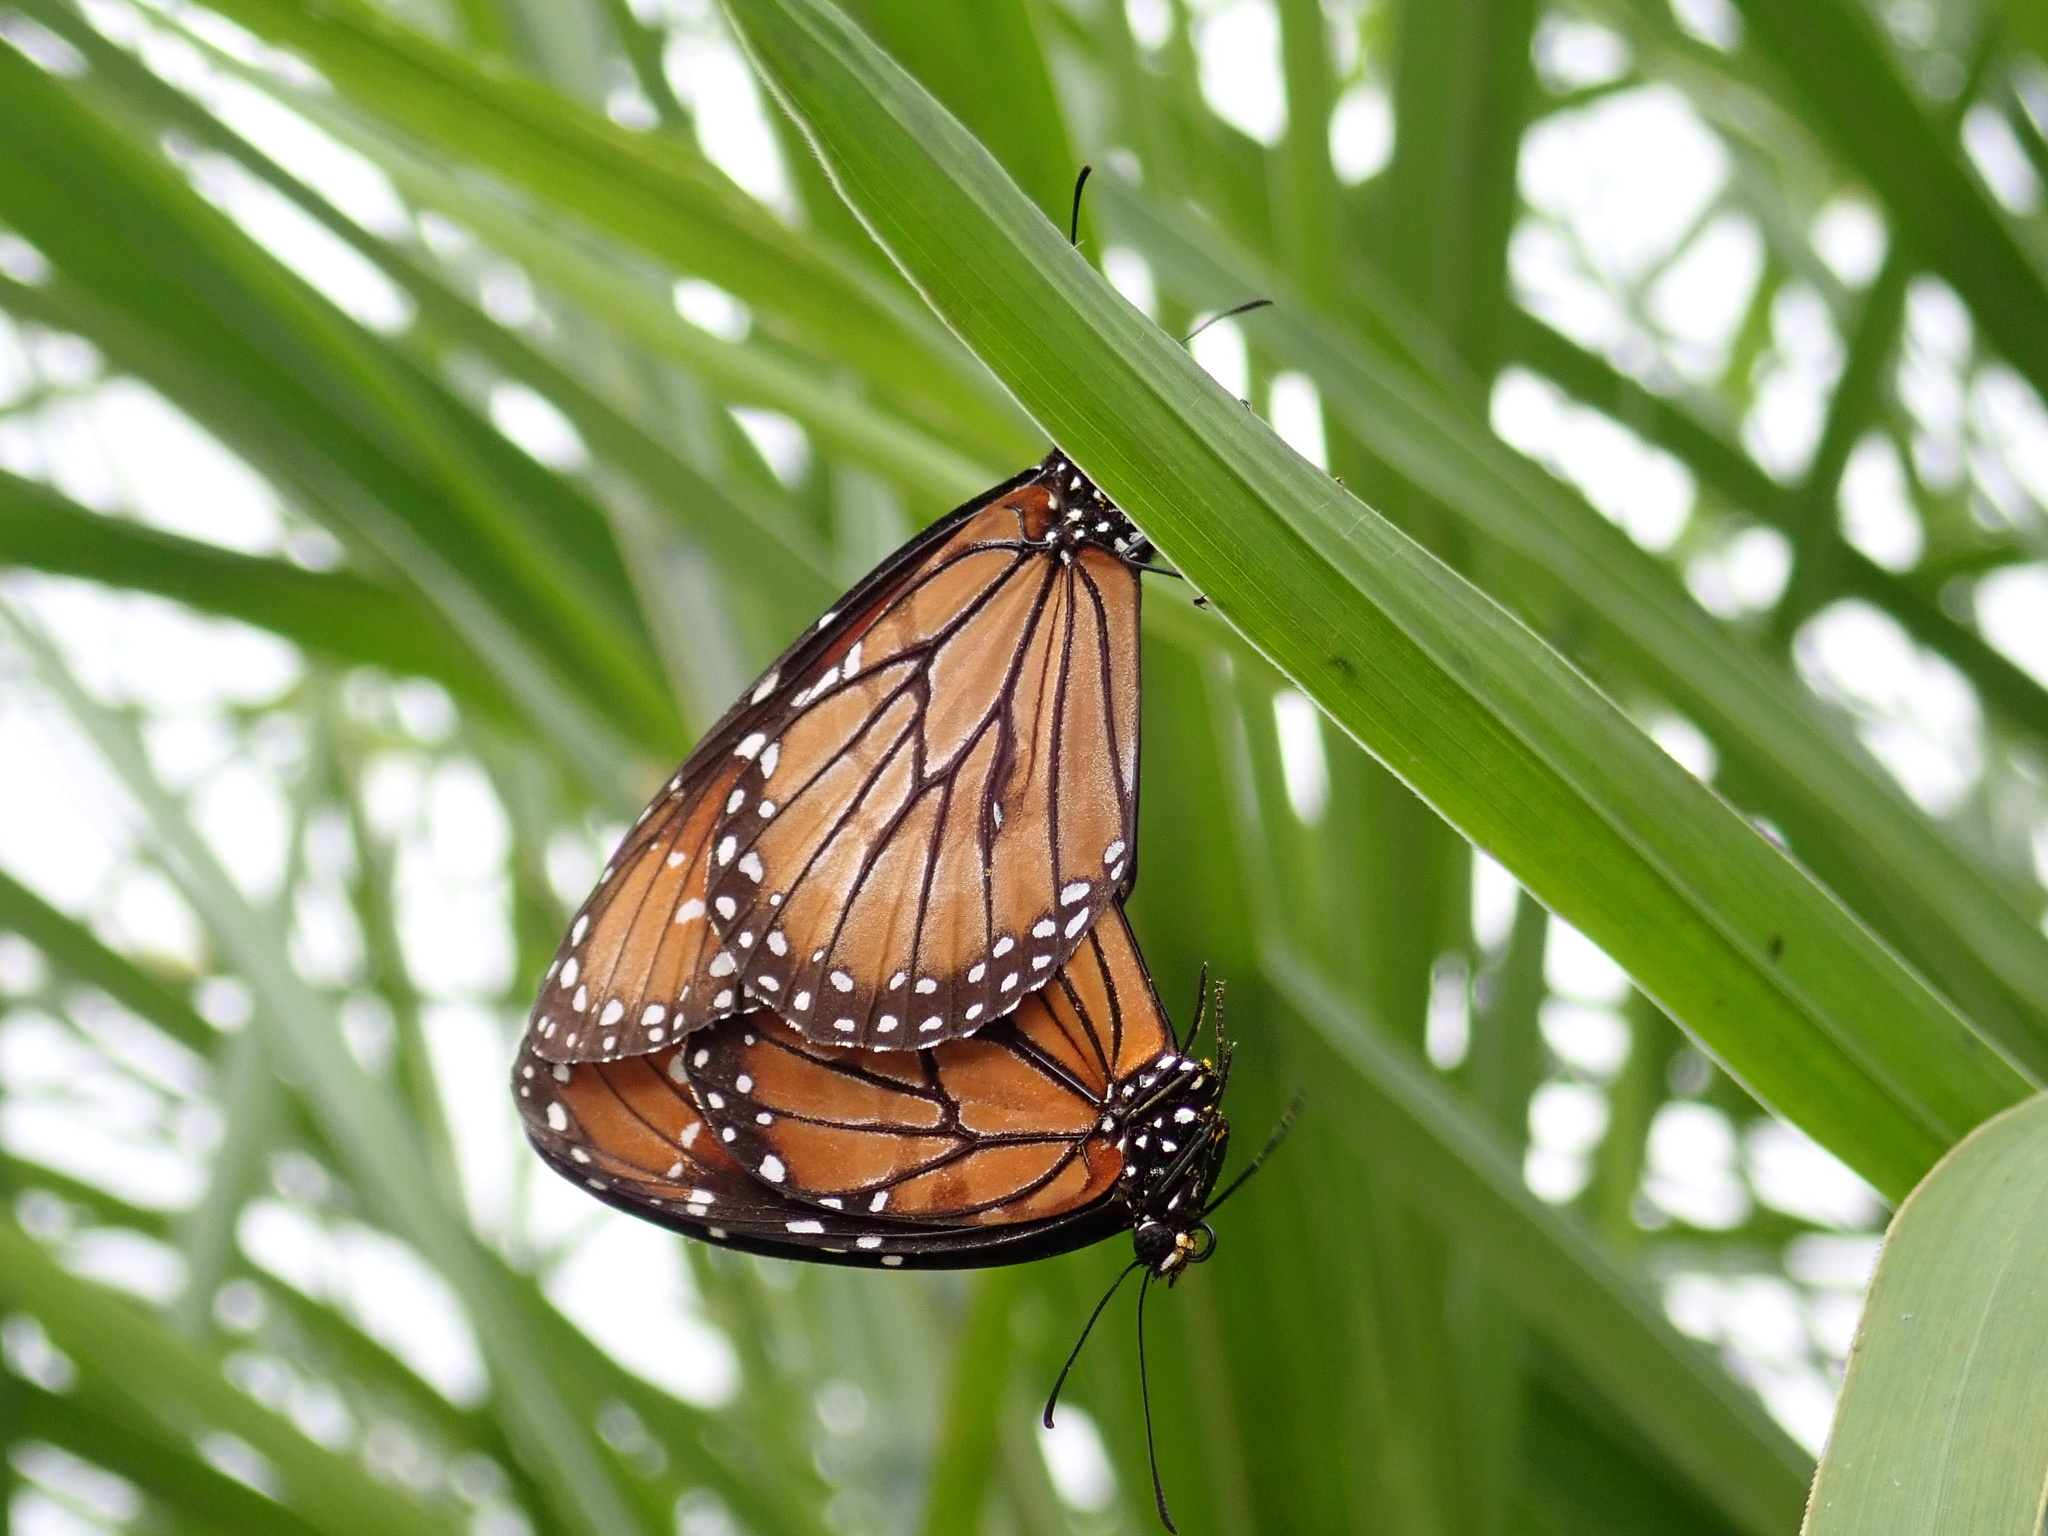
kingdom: Animalia
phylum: Arthropoda
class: Insecta
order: Lepidoptera
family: Nymphalidae
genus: Danaus
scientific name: Danaus eresimus
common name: Soldier
